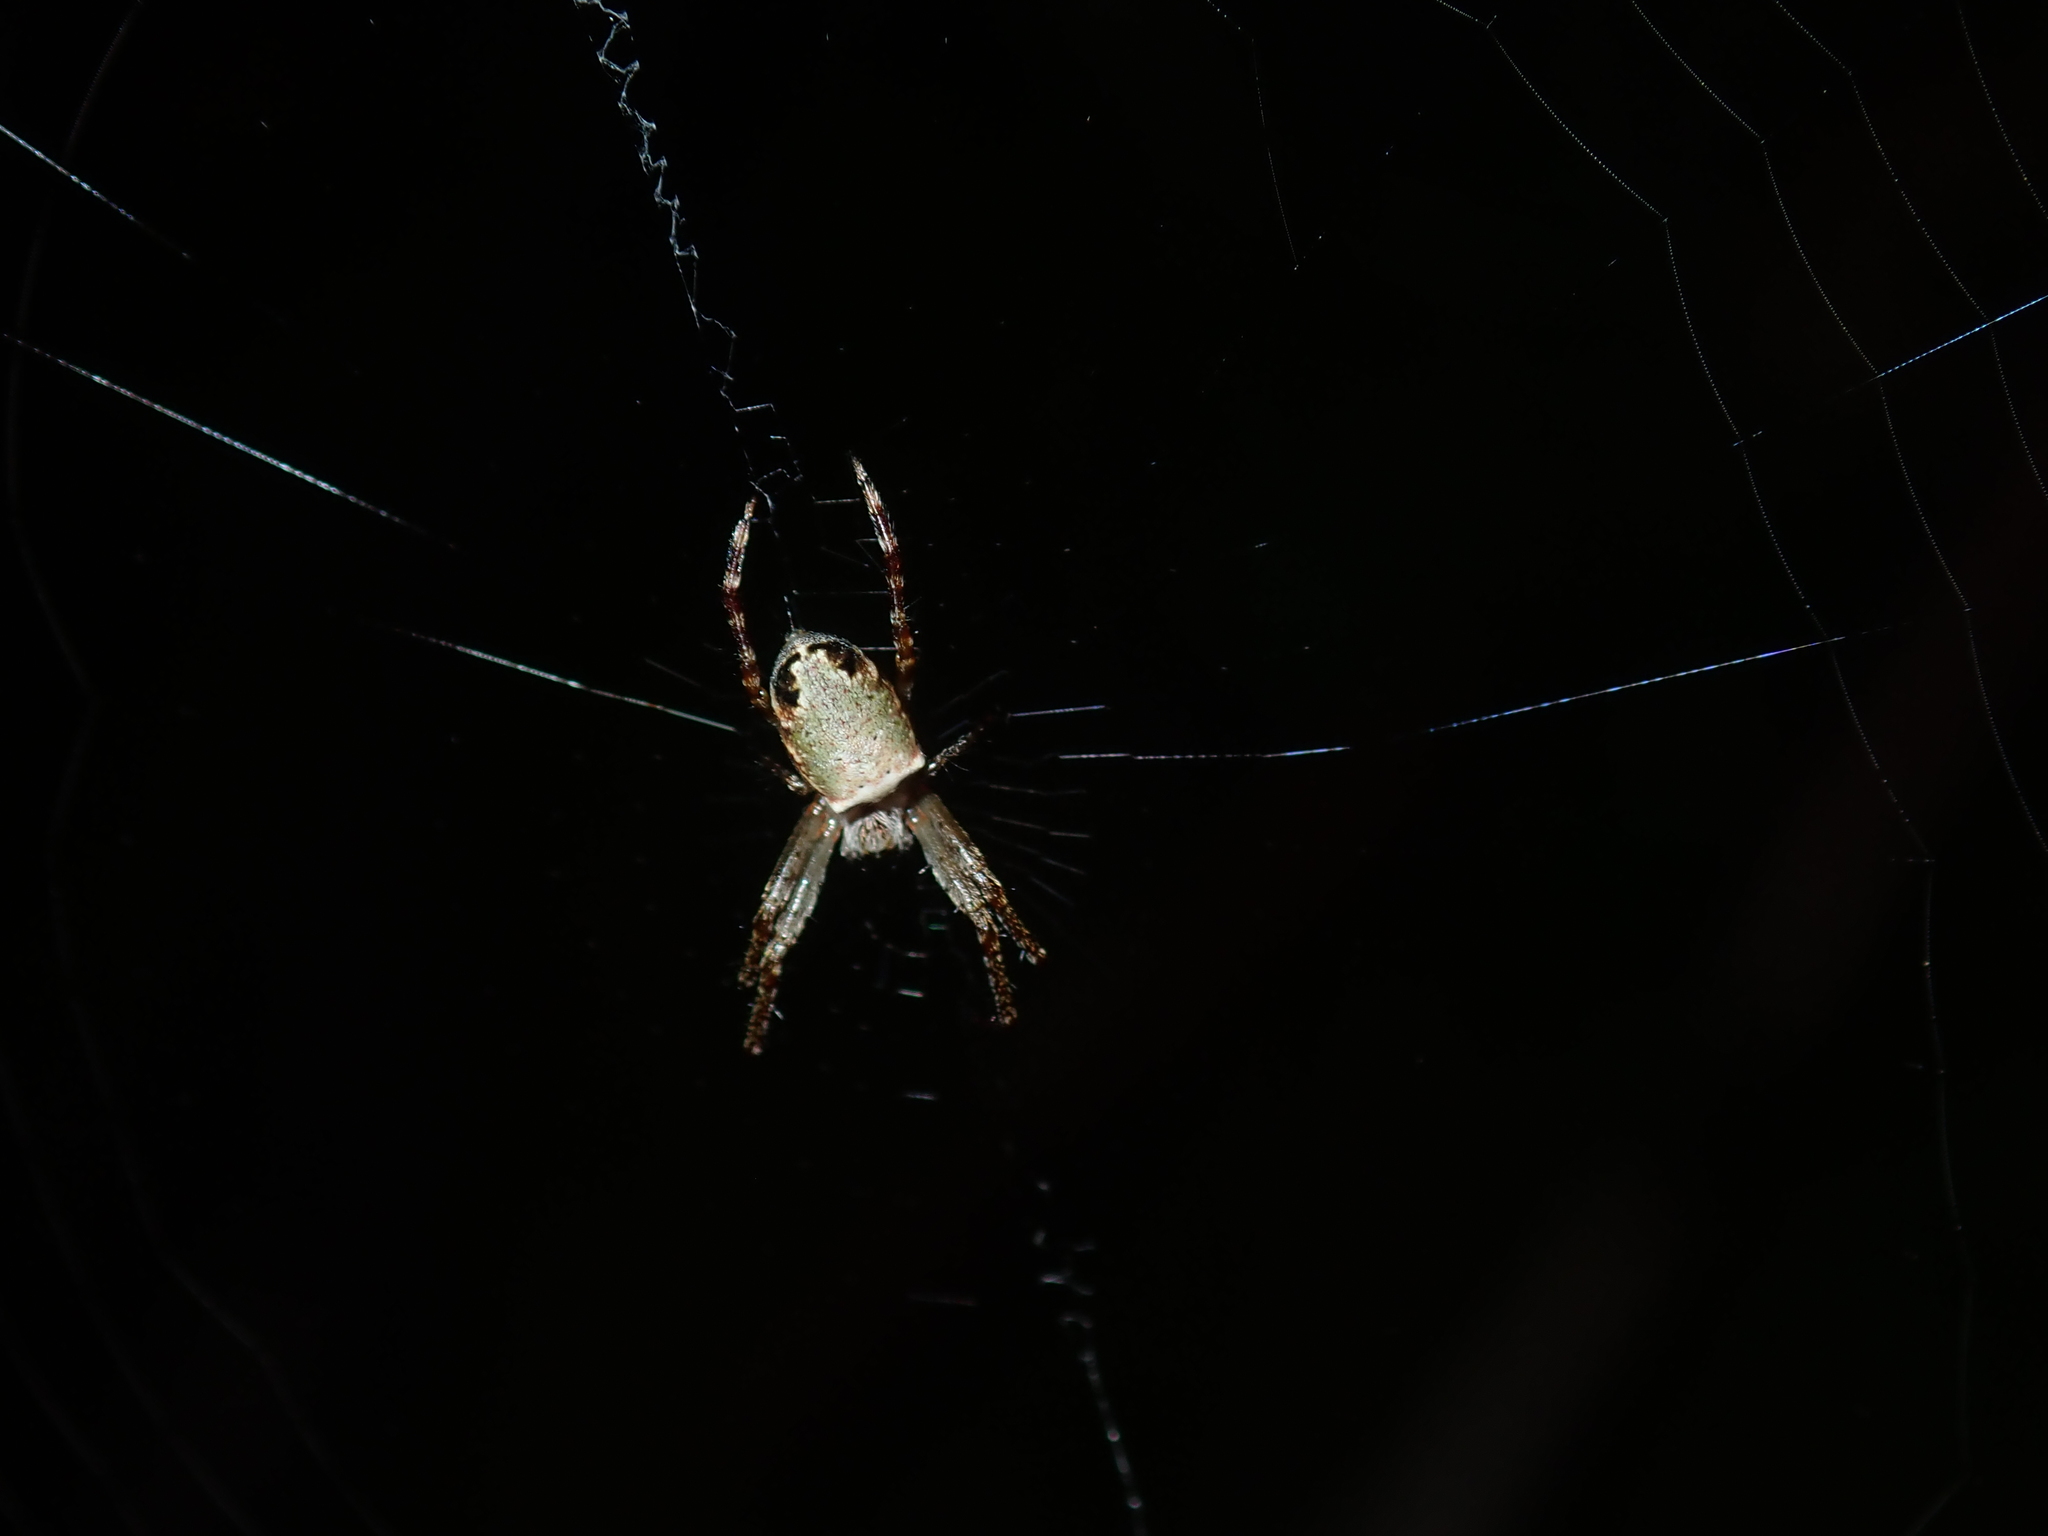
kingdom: Animalia
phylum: Arthropoda
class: Arachnida
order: Araneae
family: Araneidae
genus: Plebs
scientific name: Plebs eburnus
